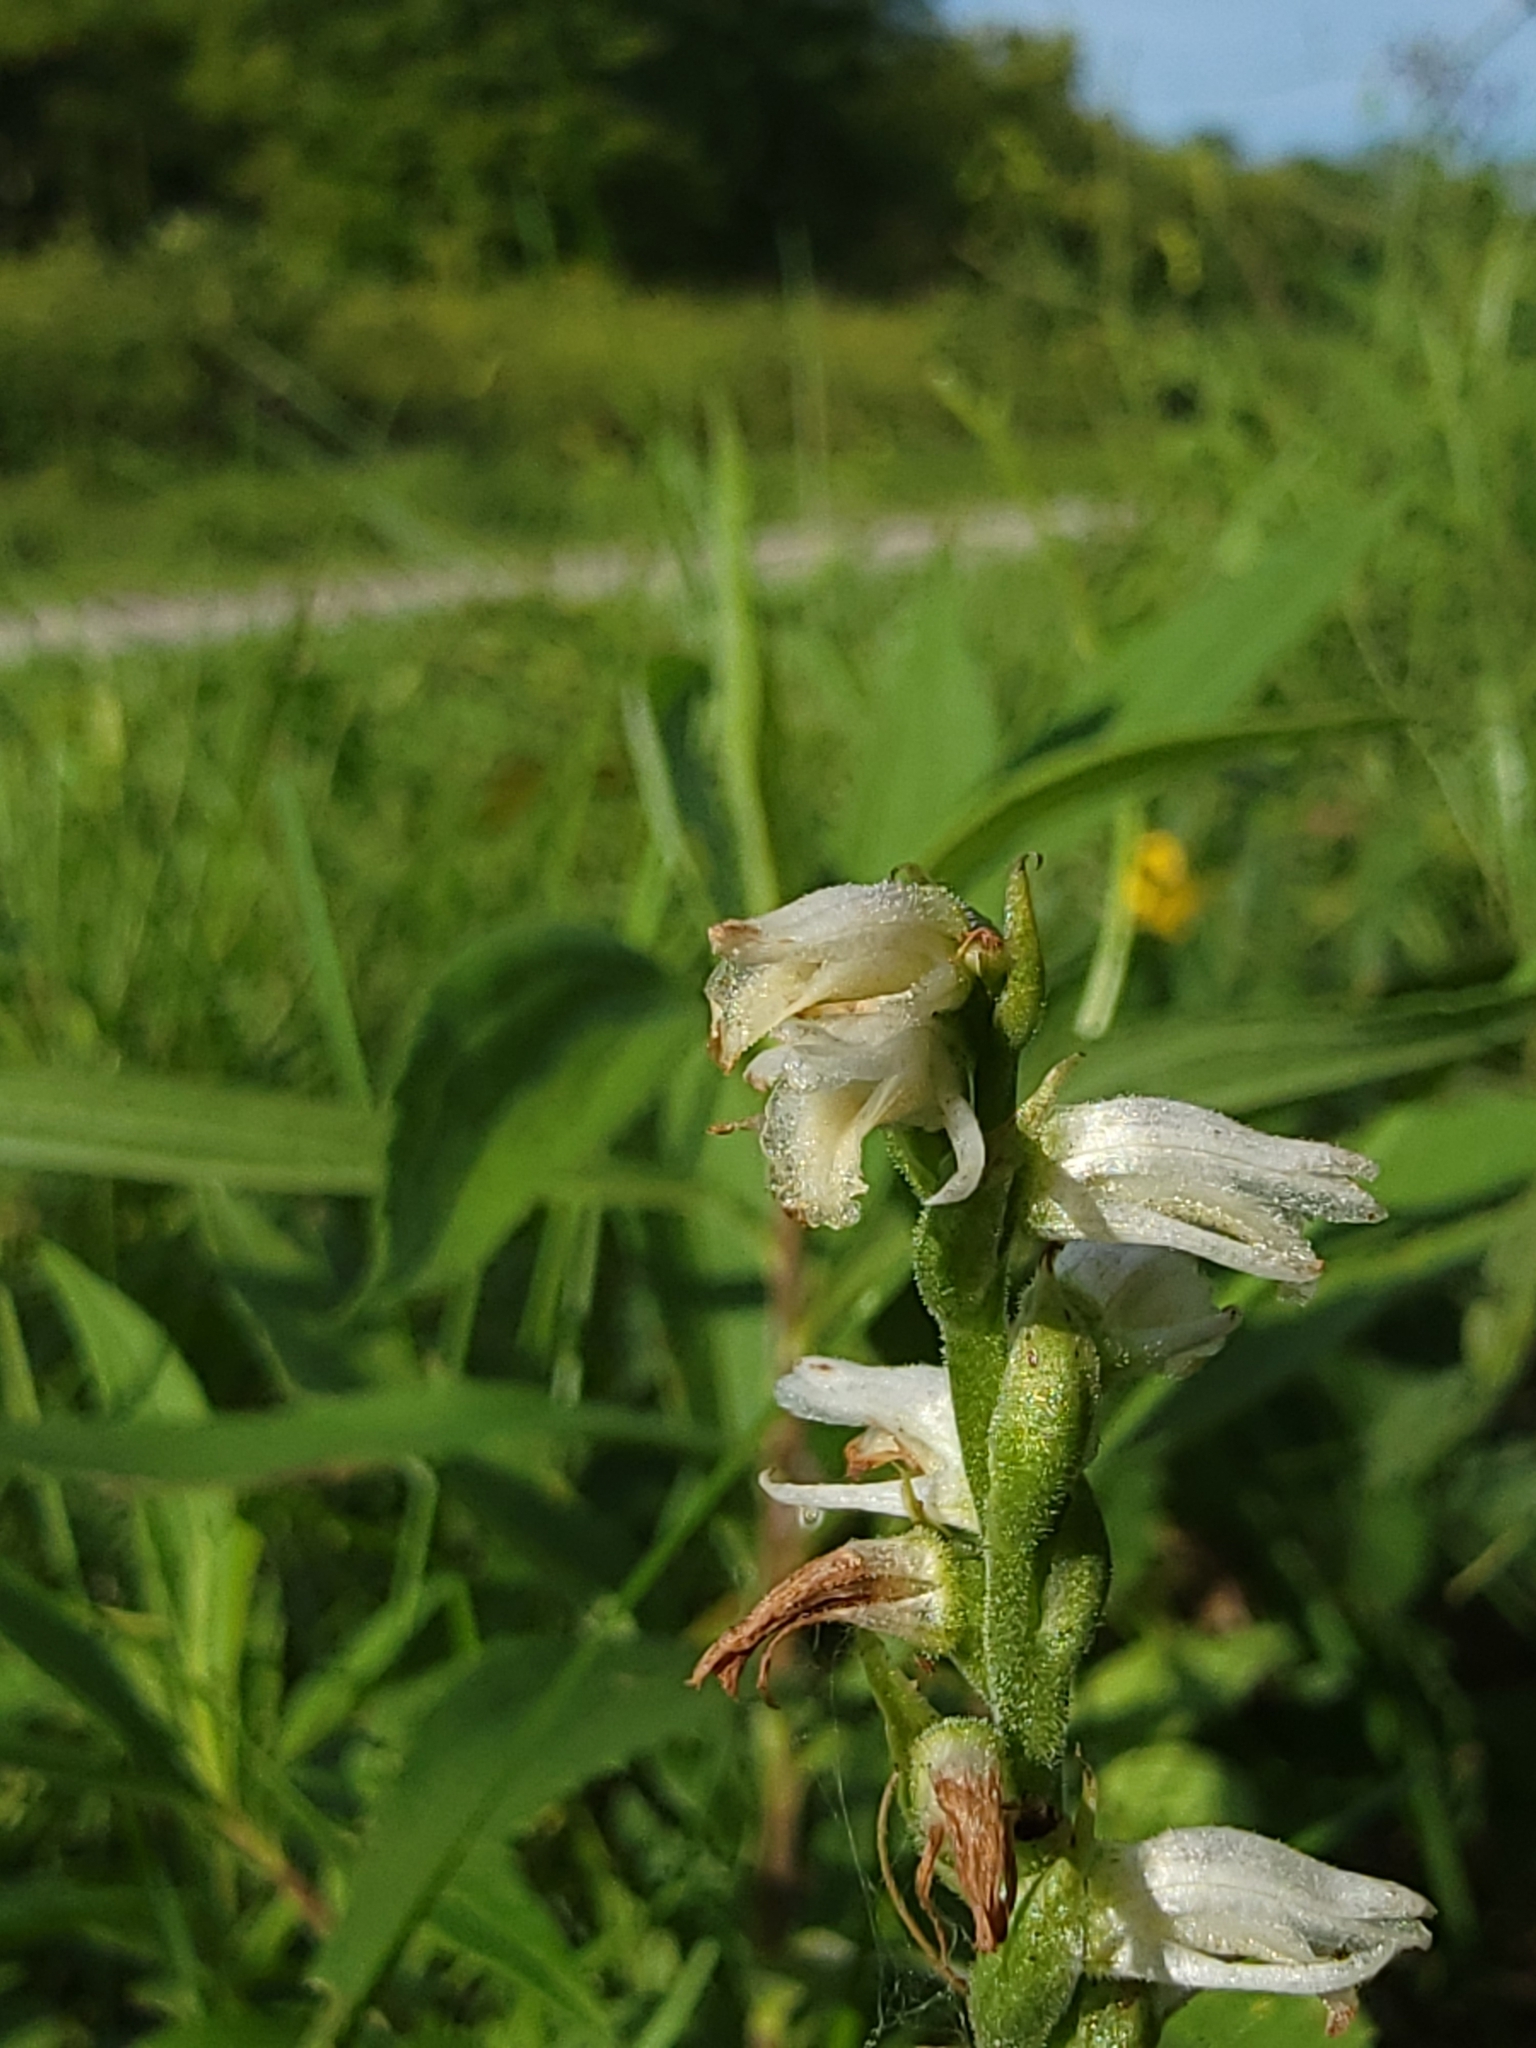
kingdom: Plantae
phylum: Tracheophyta
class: Liliopsida
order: Asparagales
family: Orchidaceae
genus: Spiranthes
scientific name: Spiranthes vernalis
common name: Spring ladies'-tresses
